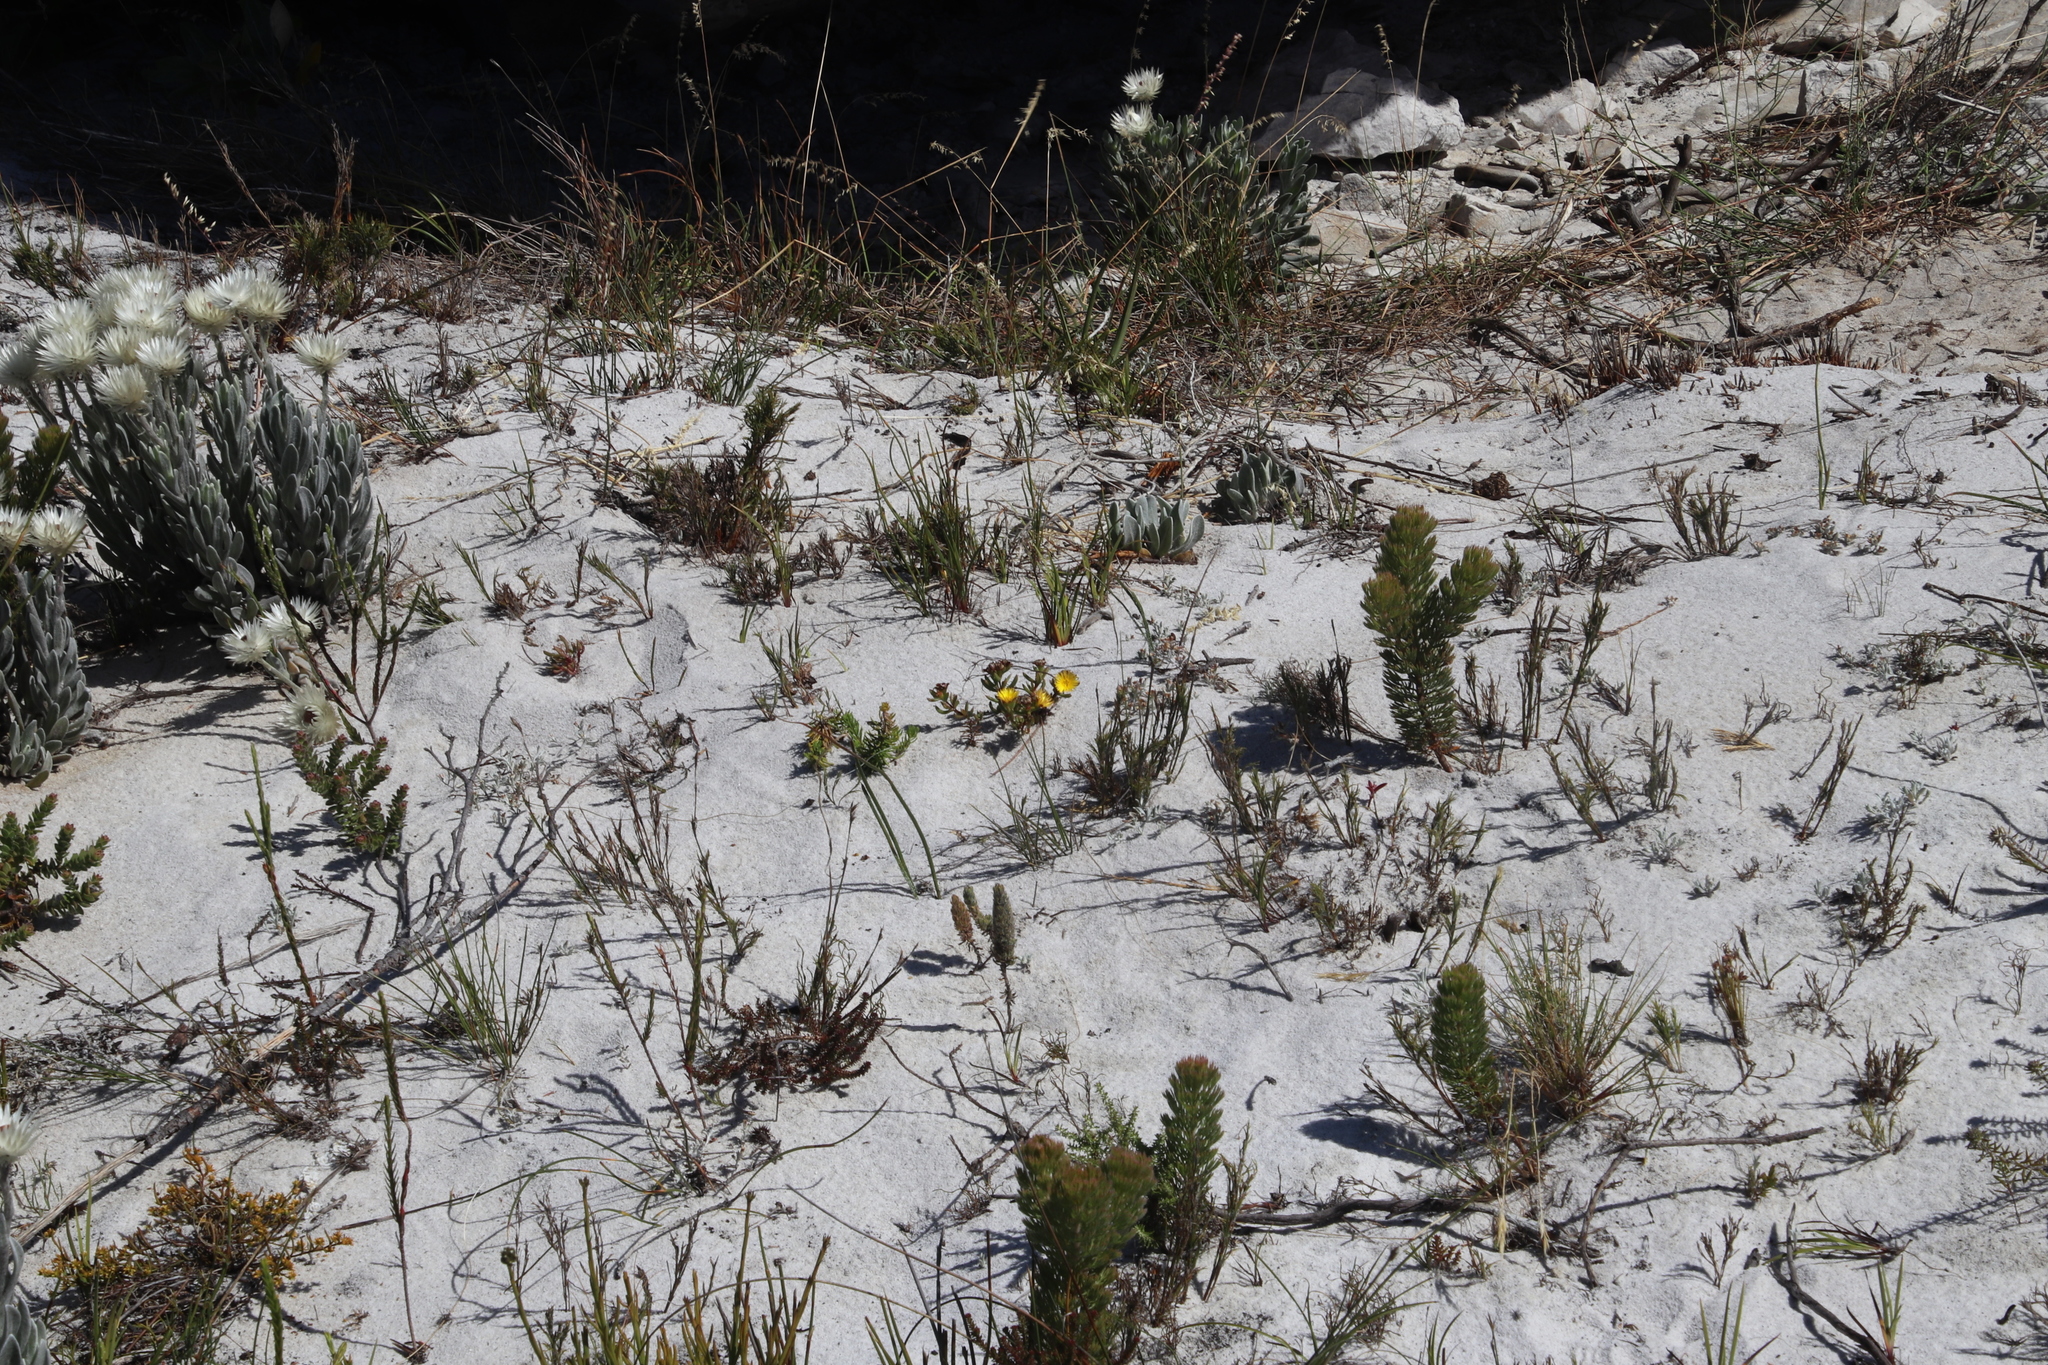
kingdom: Plantae
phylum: Tracheophyta
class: Magnoliopsida
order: Caryophyllales
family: Aizoaceae
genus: Lampranthus
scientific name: Lampranthus promontorii
